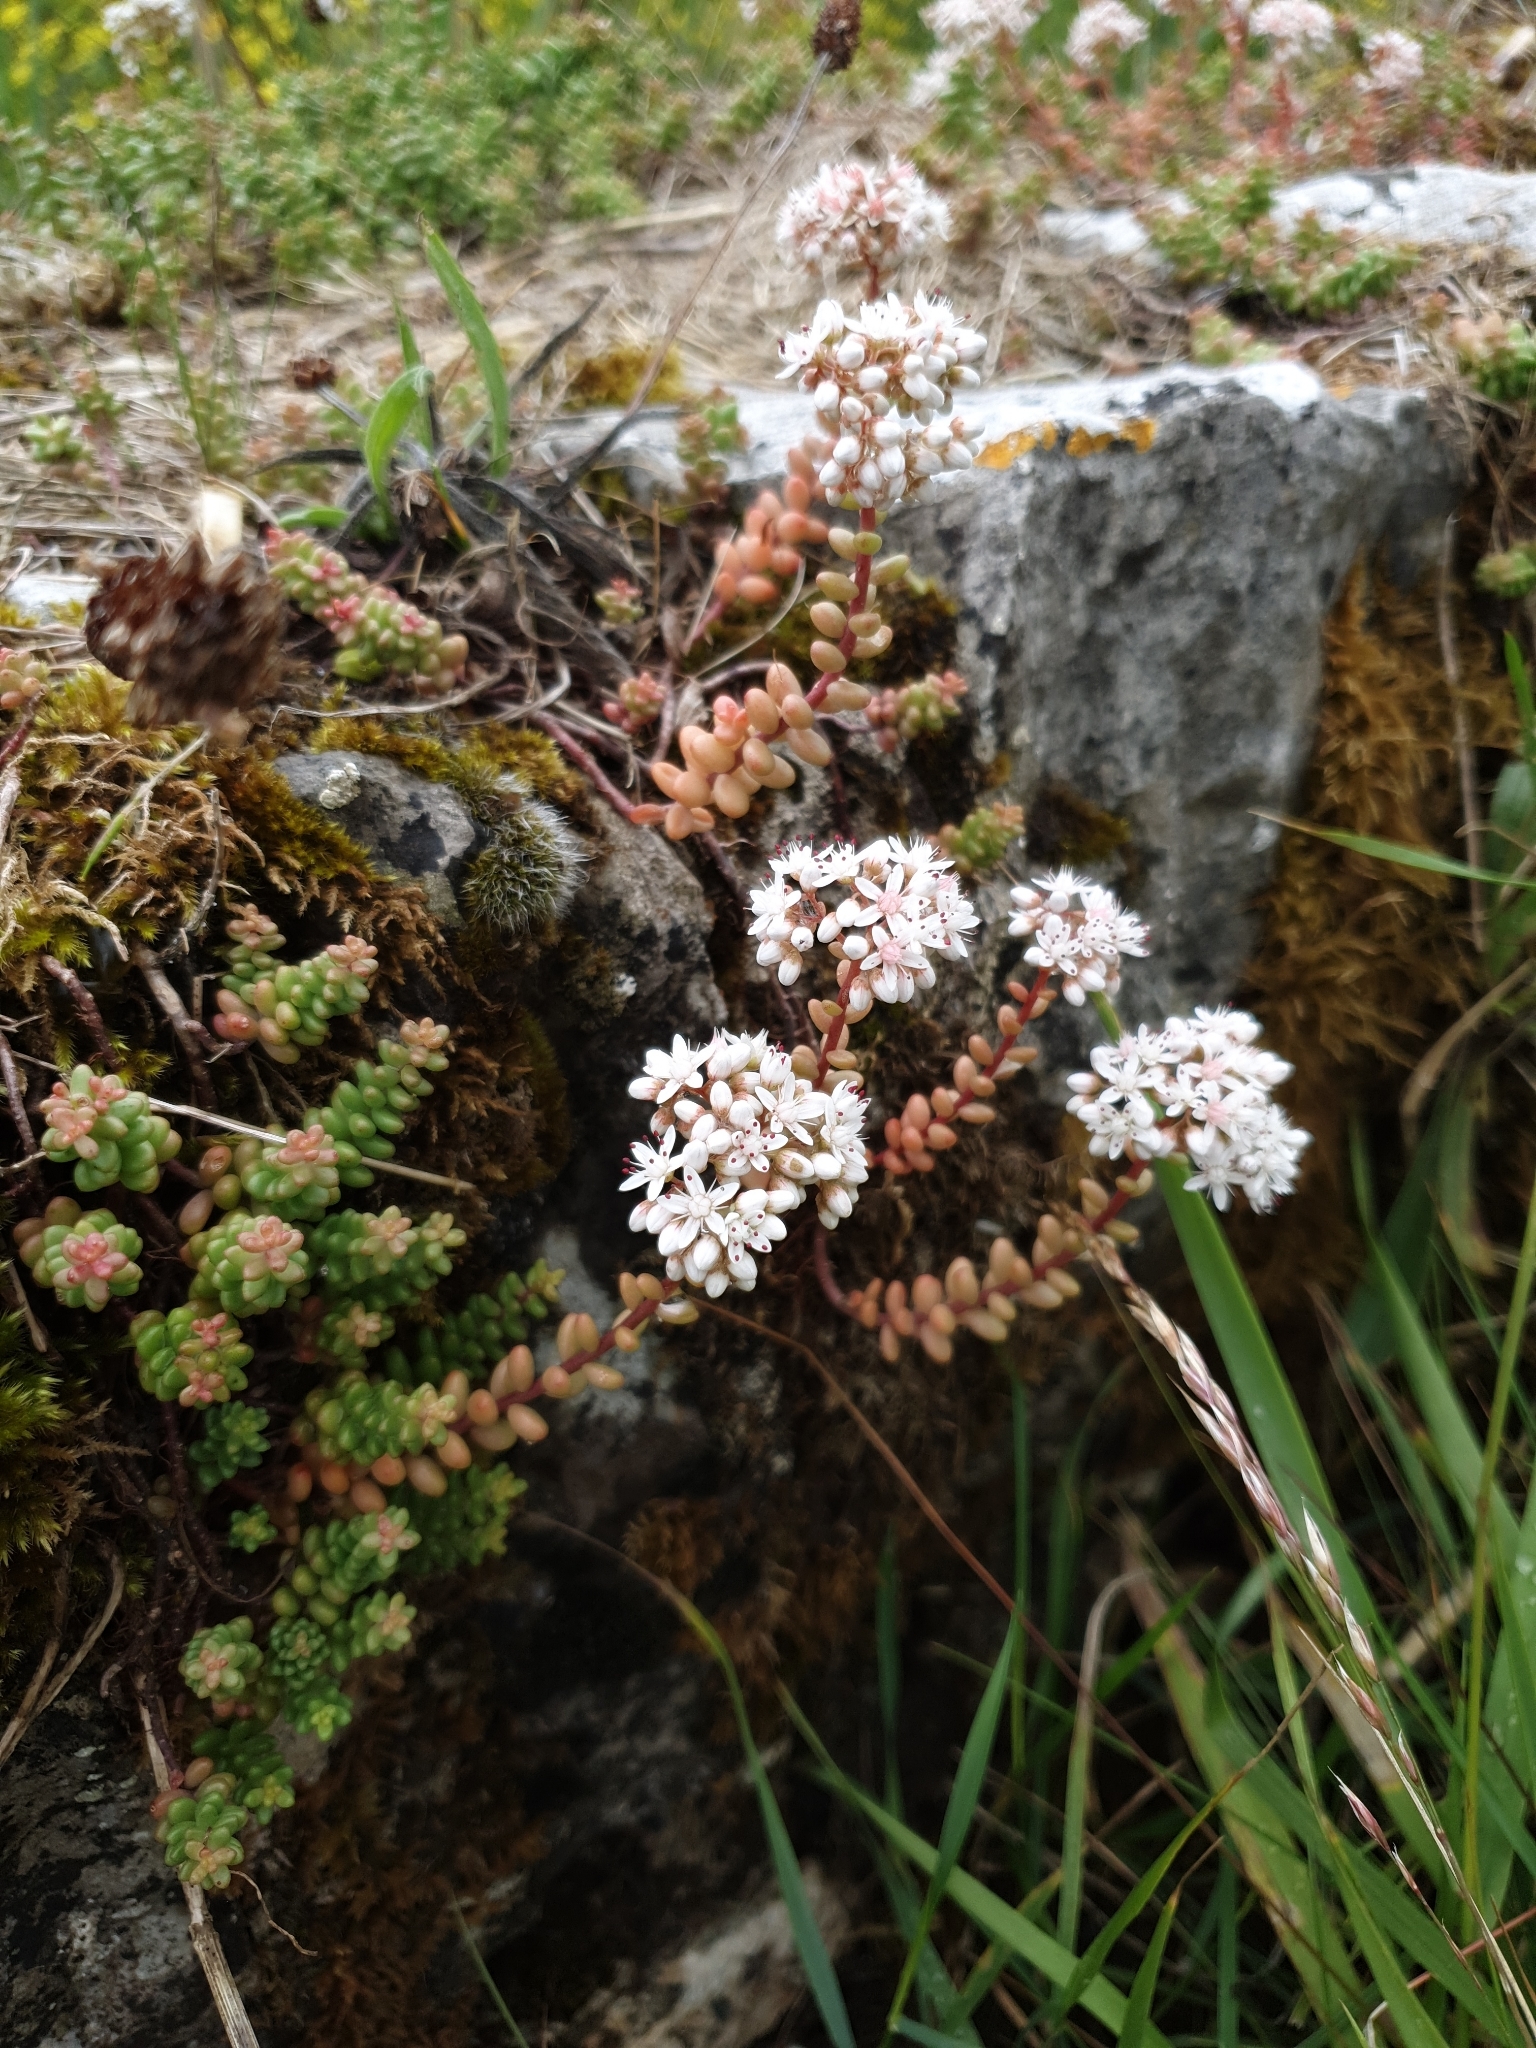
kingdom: Plantae
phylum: Tracheophyta
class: Magnoliopsida
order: Saxifragales
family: Crassulaceae
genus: Sedum
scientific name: Sedum album
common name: White stonecrop
